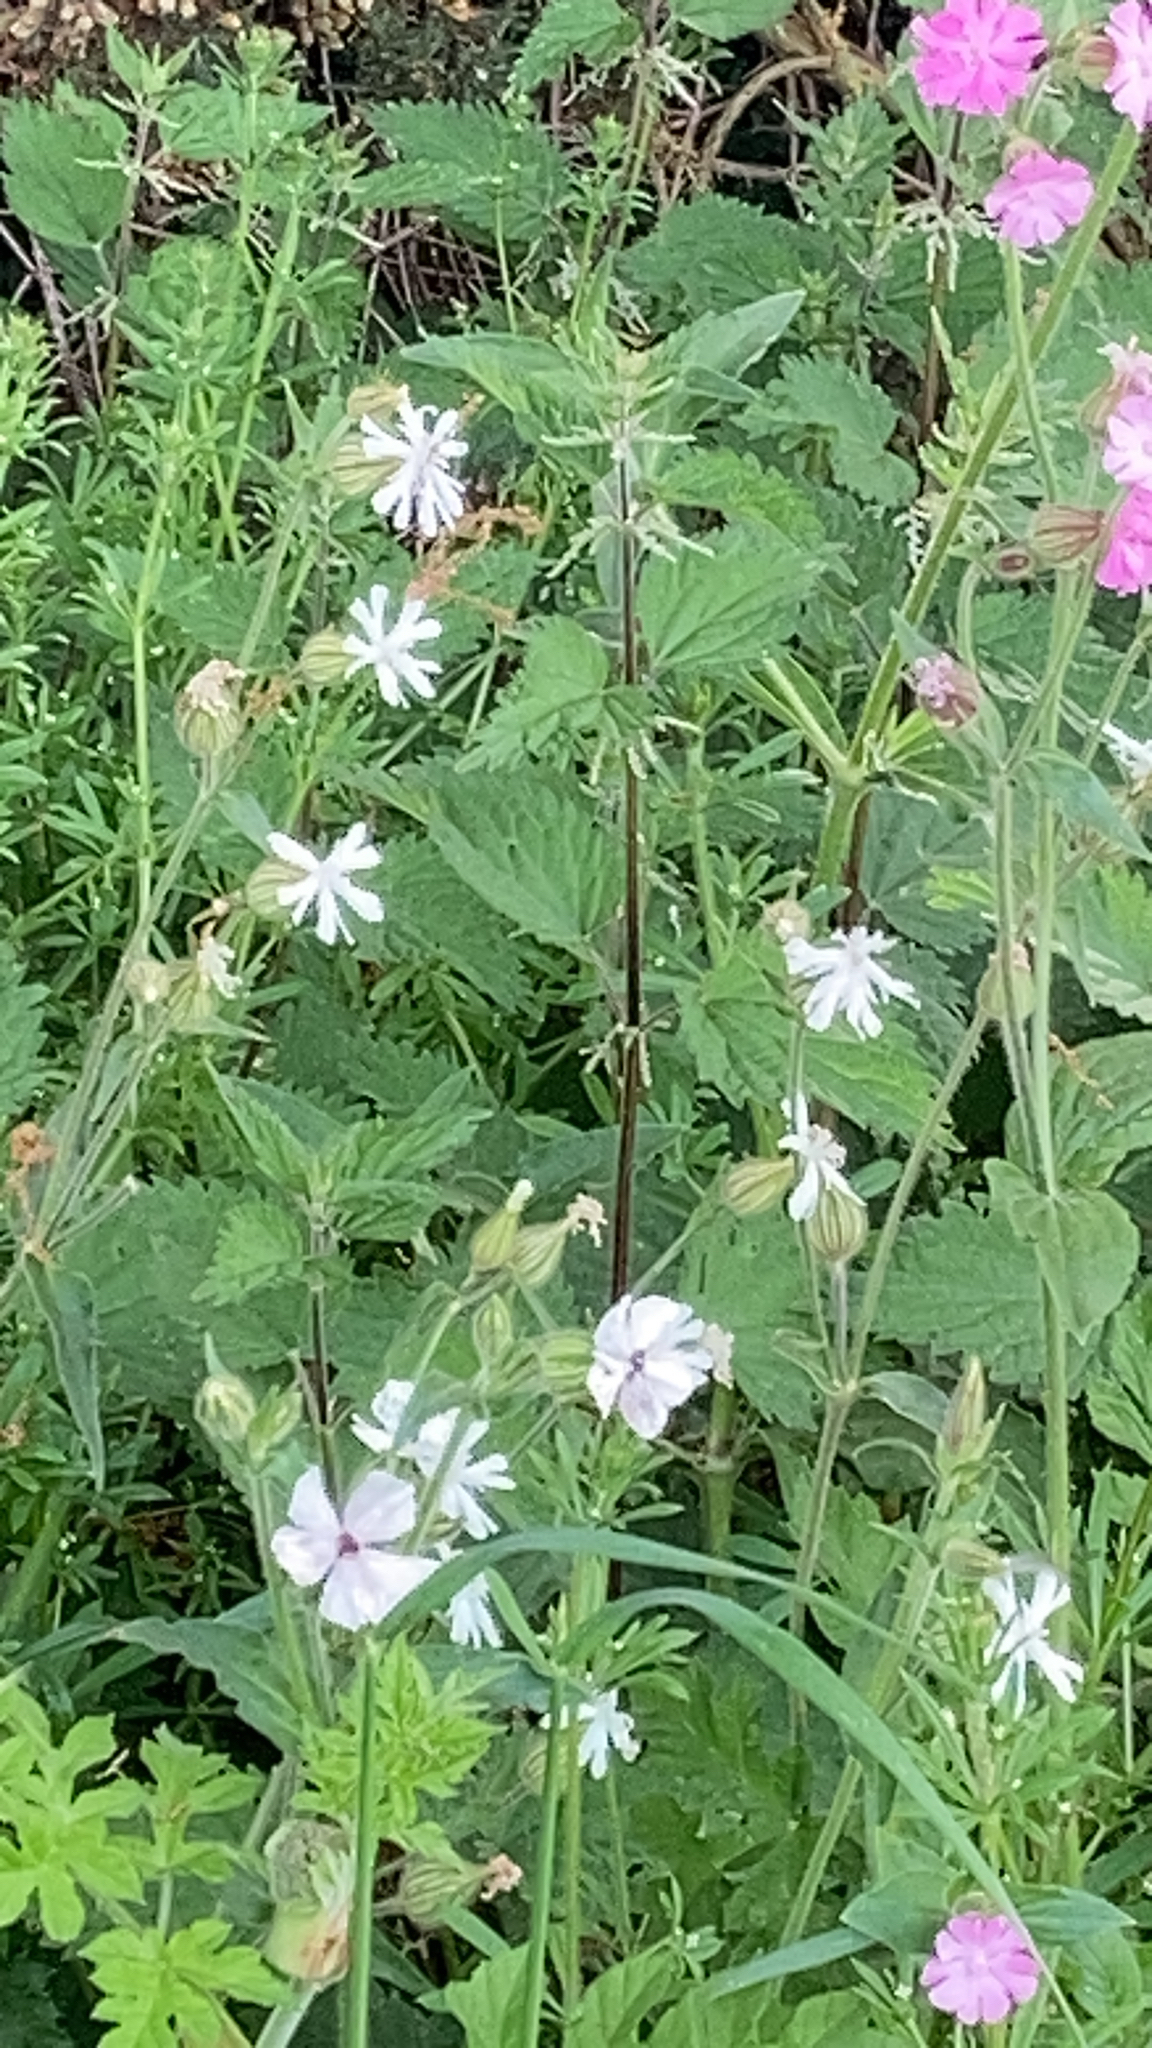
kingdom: Plantae
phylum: Tracheophyta
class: Magnoliopsida
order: Caryophyllales
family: Caryophyllaceae
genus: Silene
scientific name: Silene latifolia
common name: White campion
